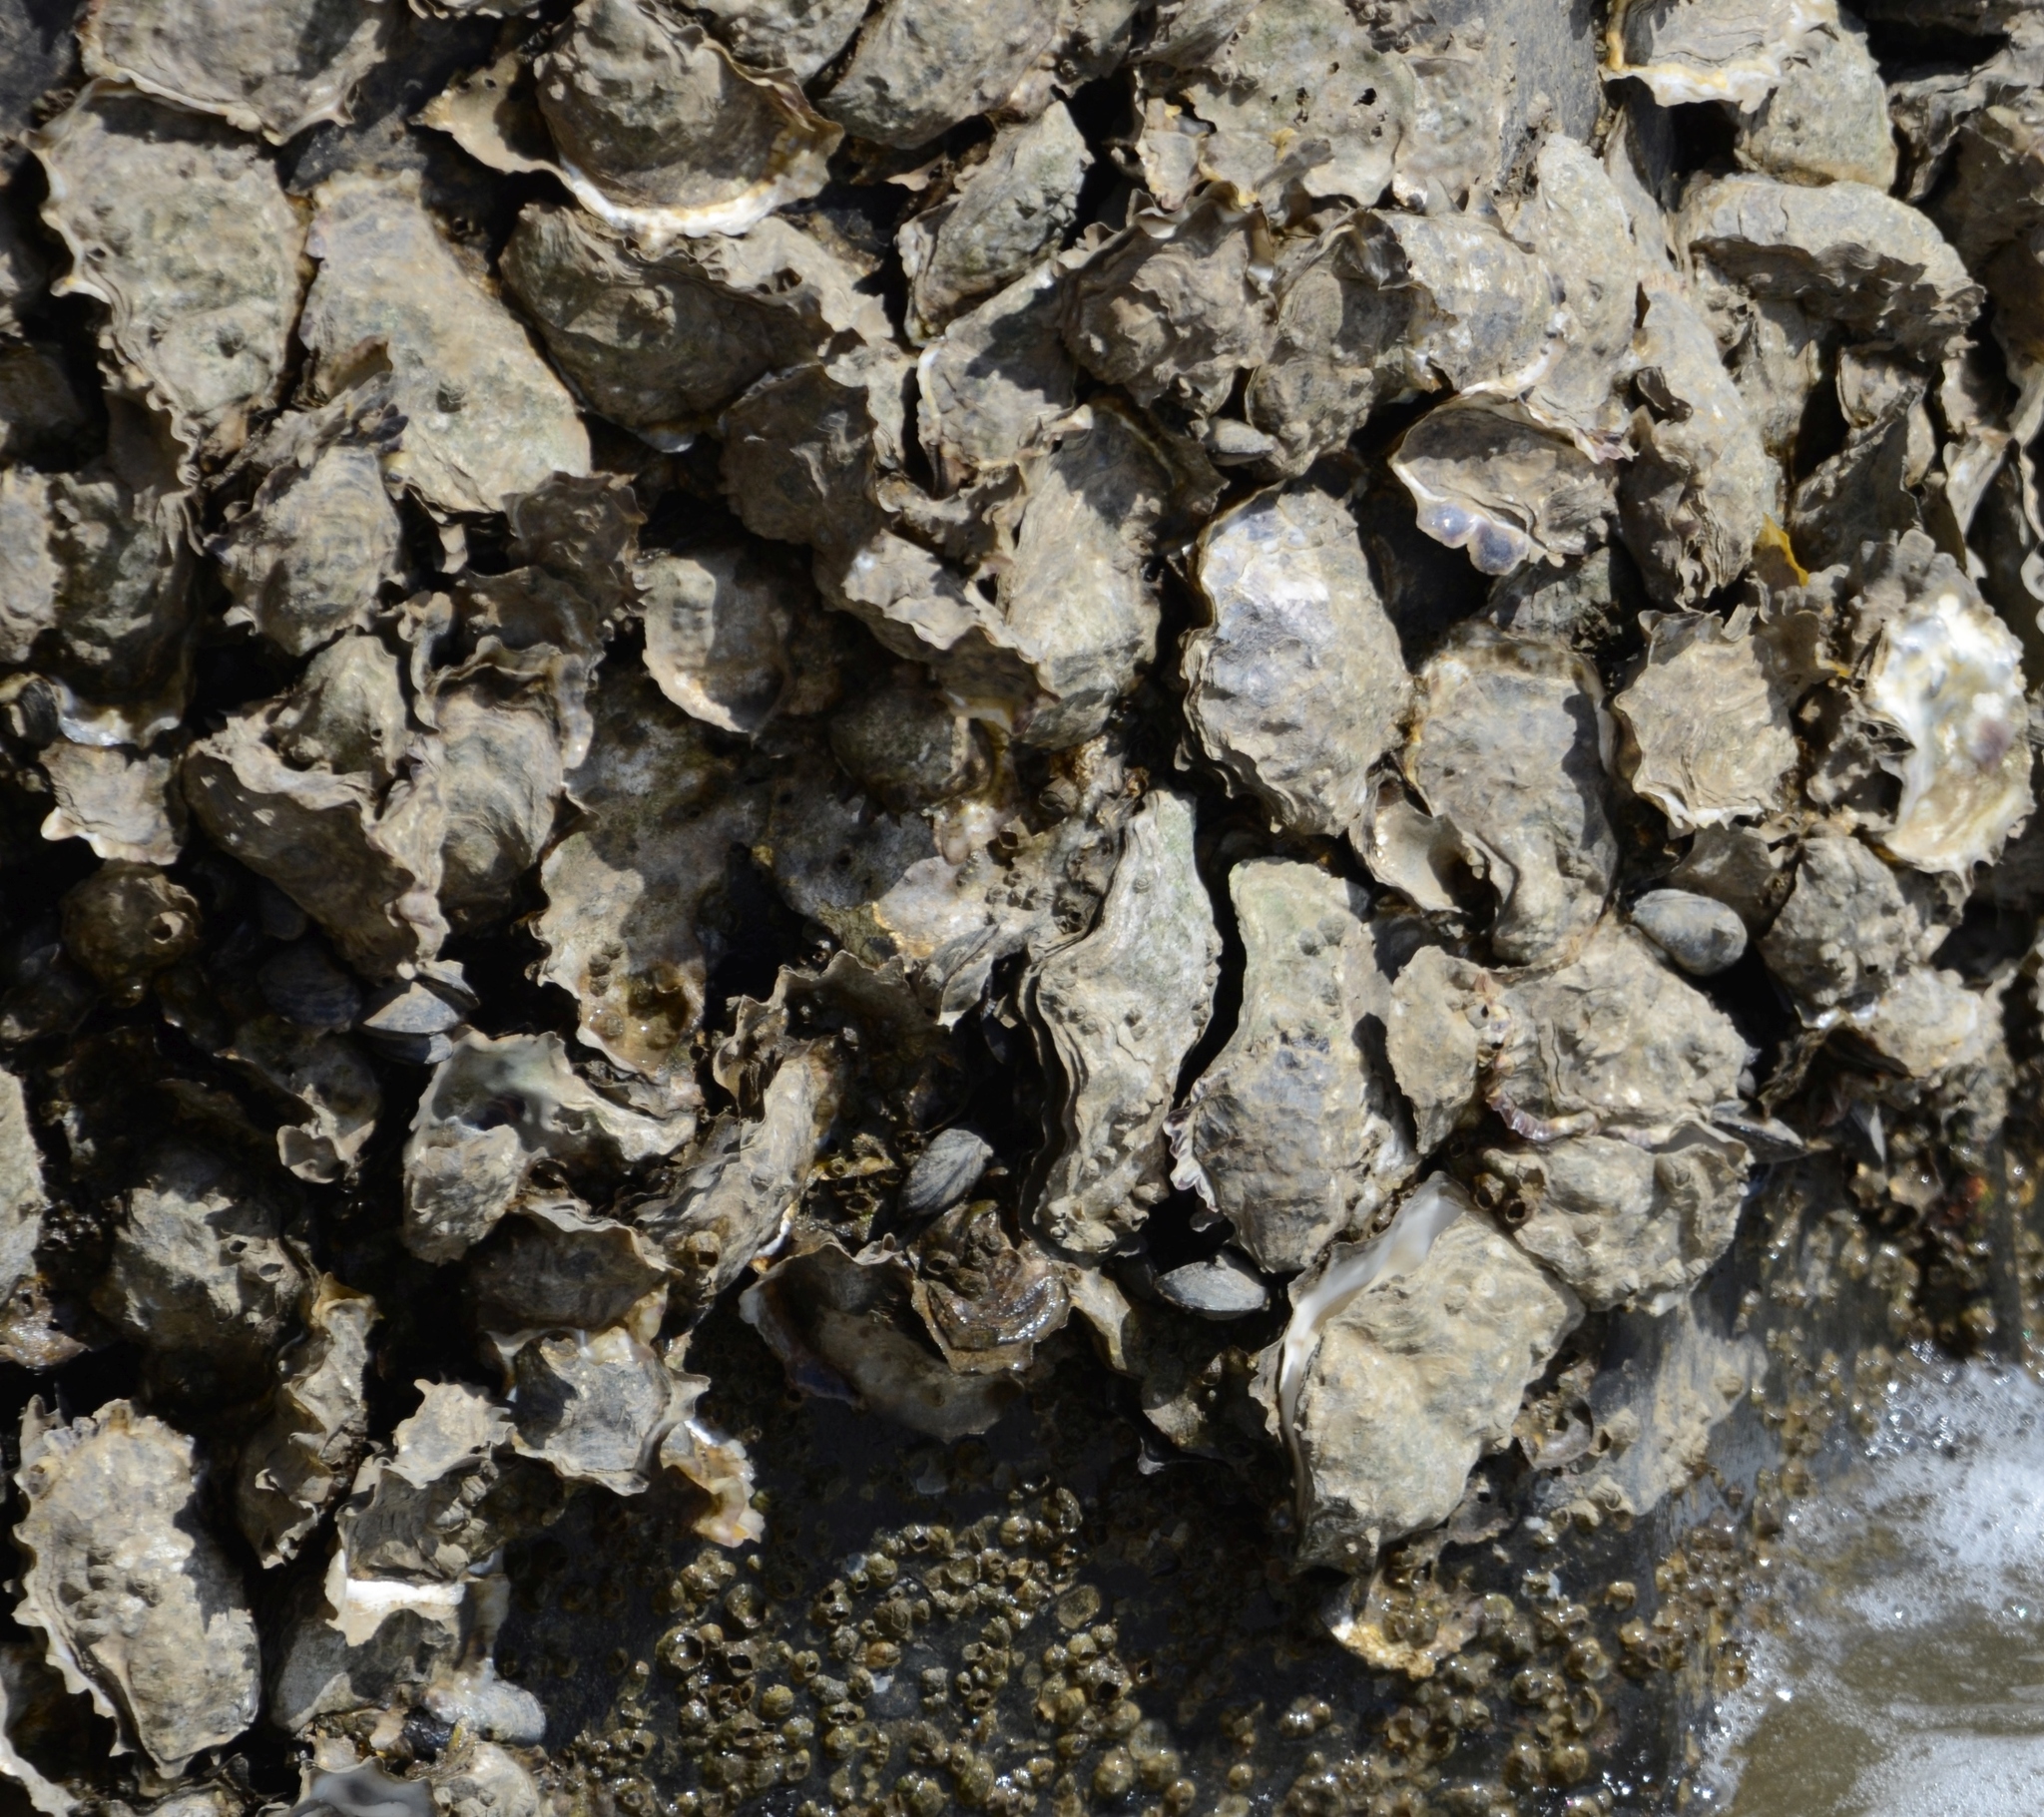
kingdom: Animalia
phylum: Mollusca
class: Bivalvia
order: Ostreida
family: Ostreidae
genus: Magallana
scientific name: Magallana gigas
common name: Pacific oyster
